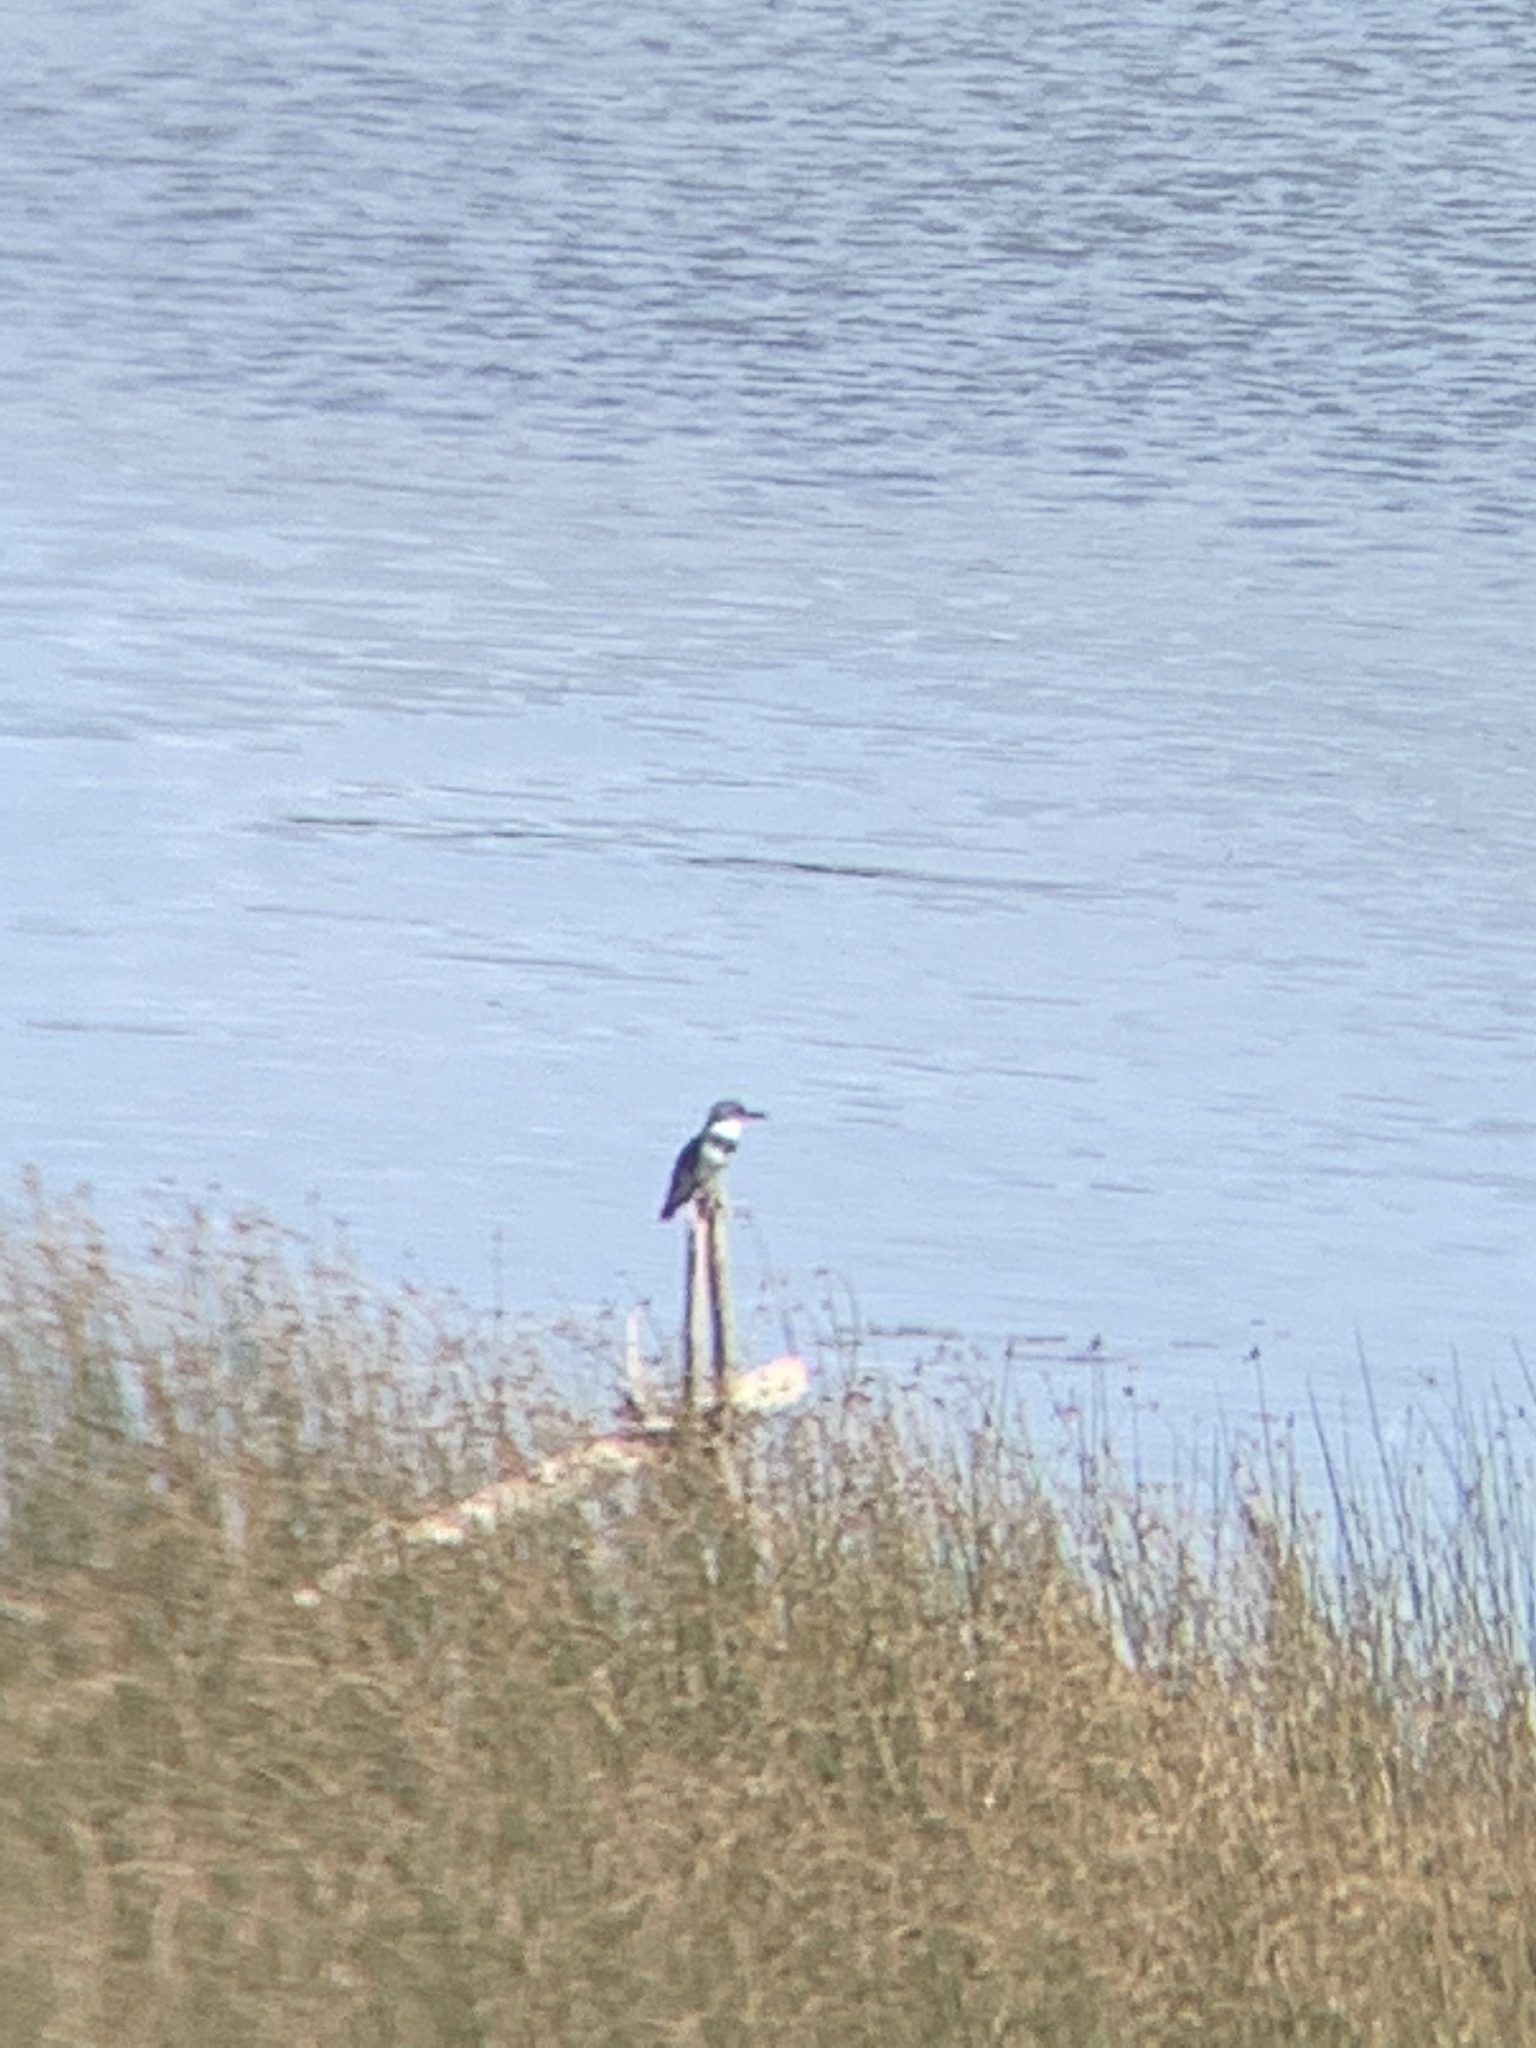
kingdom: Animalia
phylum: Chordata
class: Aves
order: Coraciiformes
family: Alcedinidae
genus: Megaceryle
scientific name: Megaceryle alcyon
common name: Belted kingfisher
